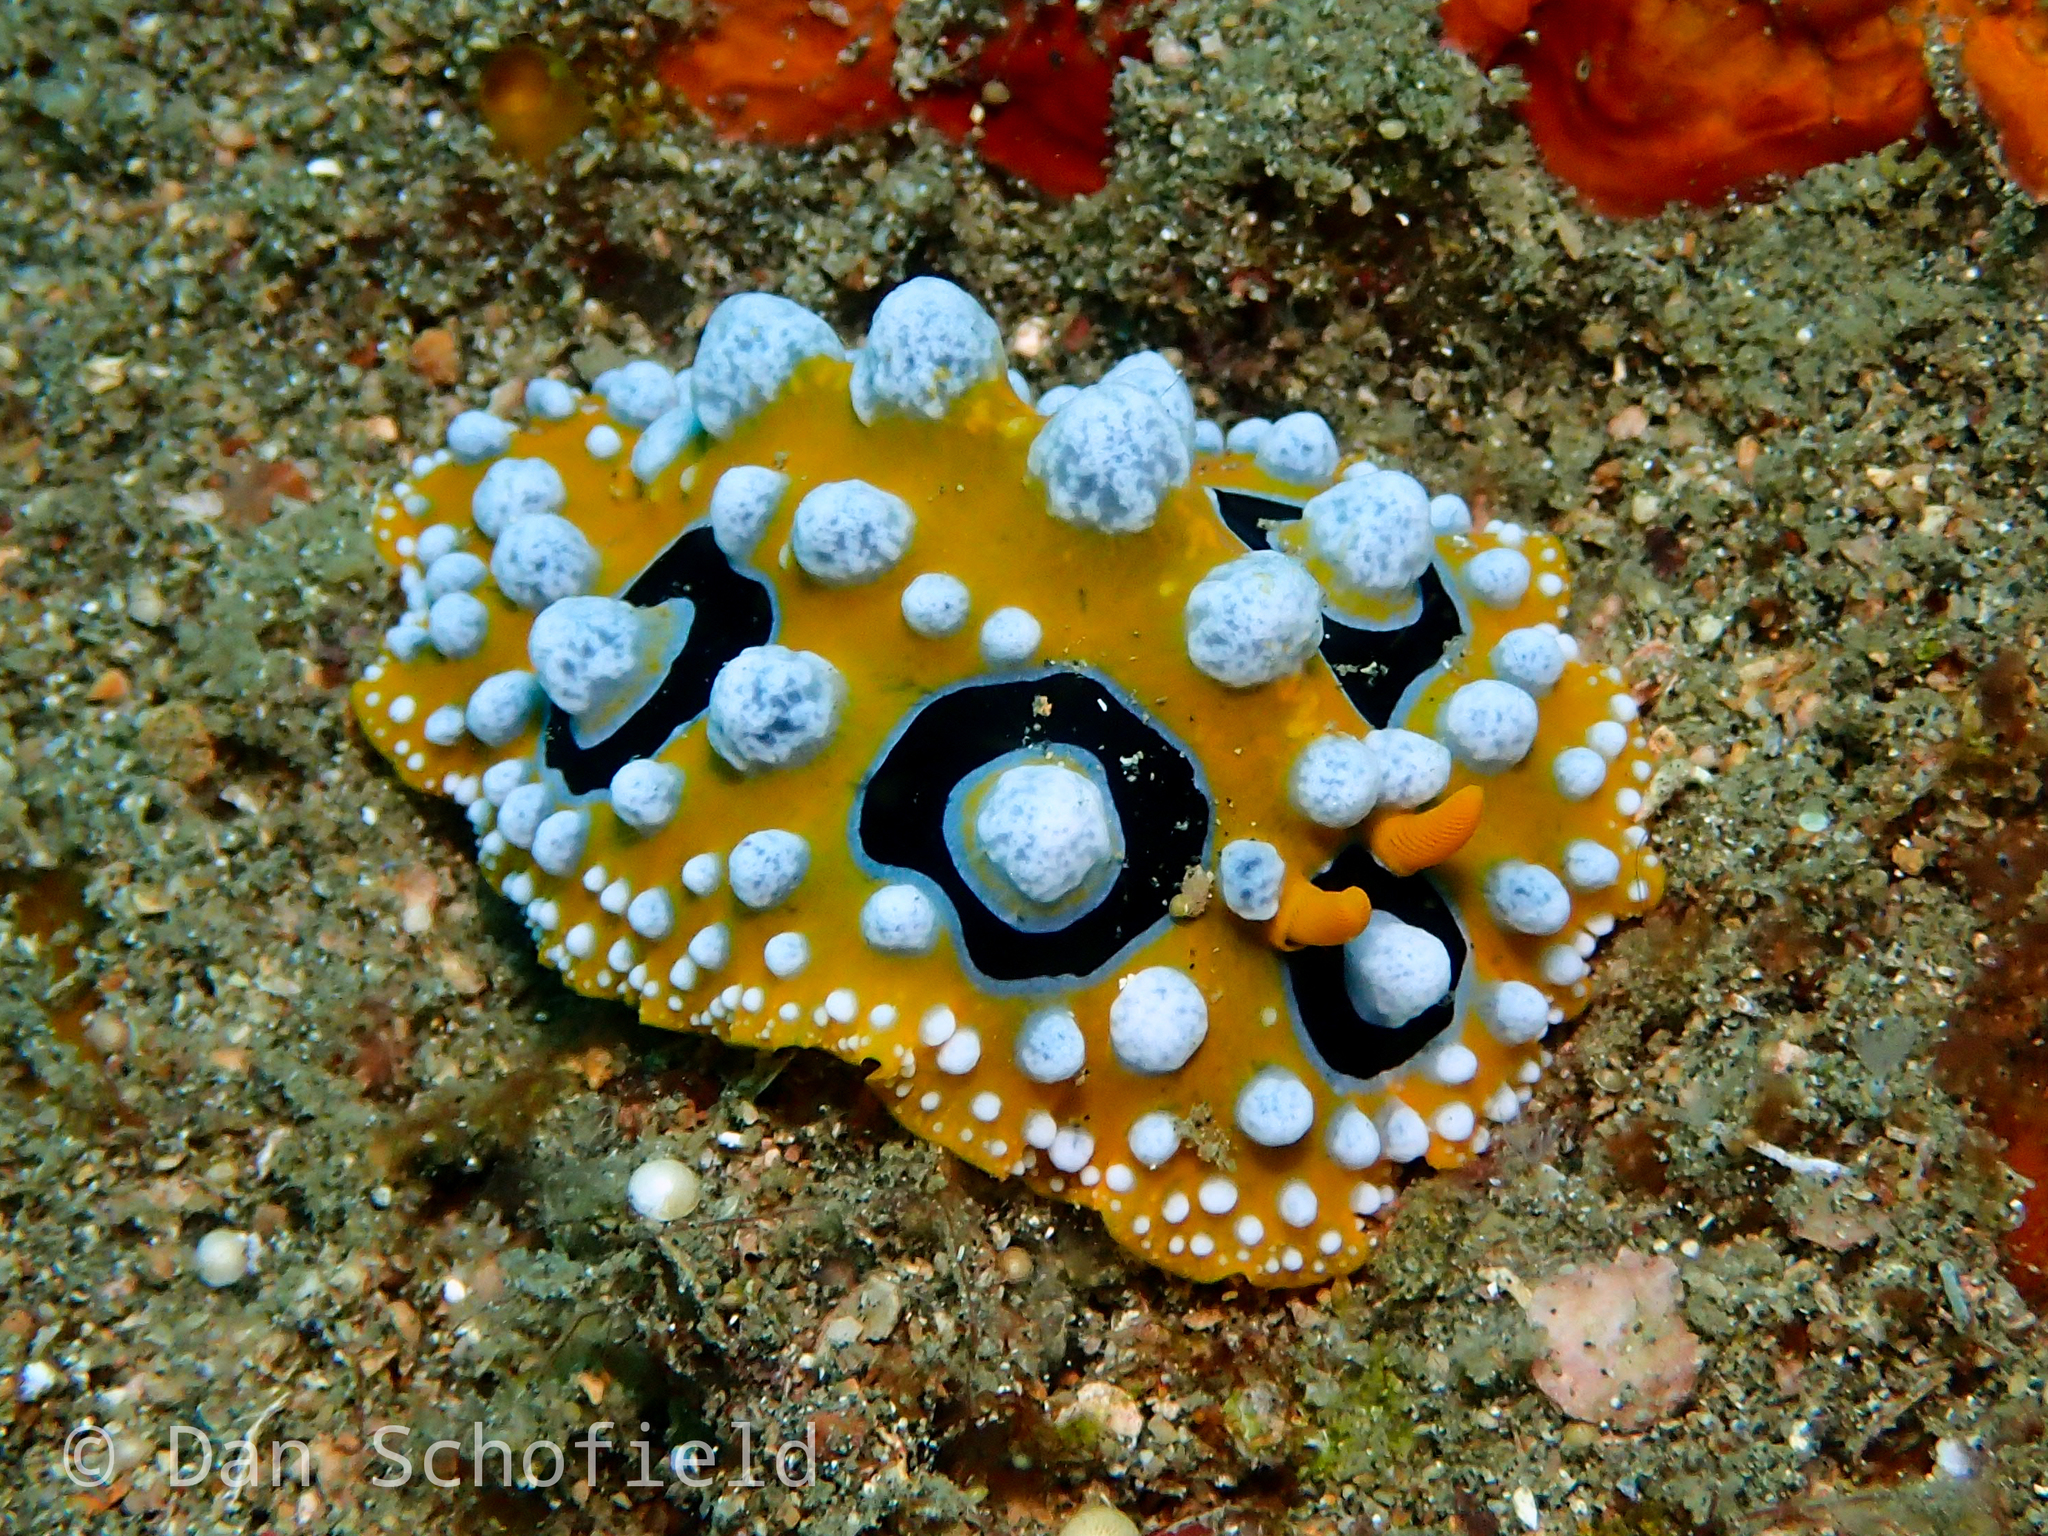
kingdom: Animalia
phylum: Mollusca
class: Gastropoda
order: Nudibranchia
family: Phyllidiidae
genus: Phyllidia
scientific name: Phyllidia ocellata
